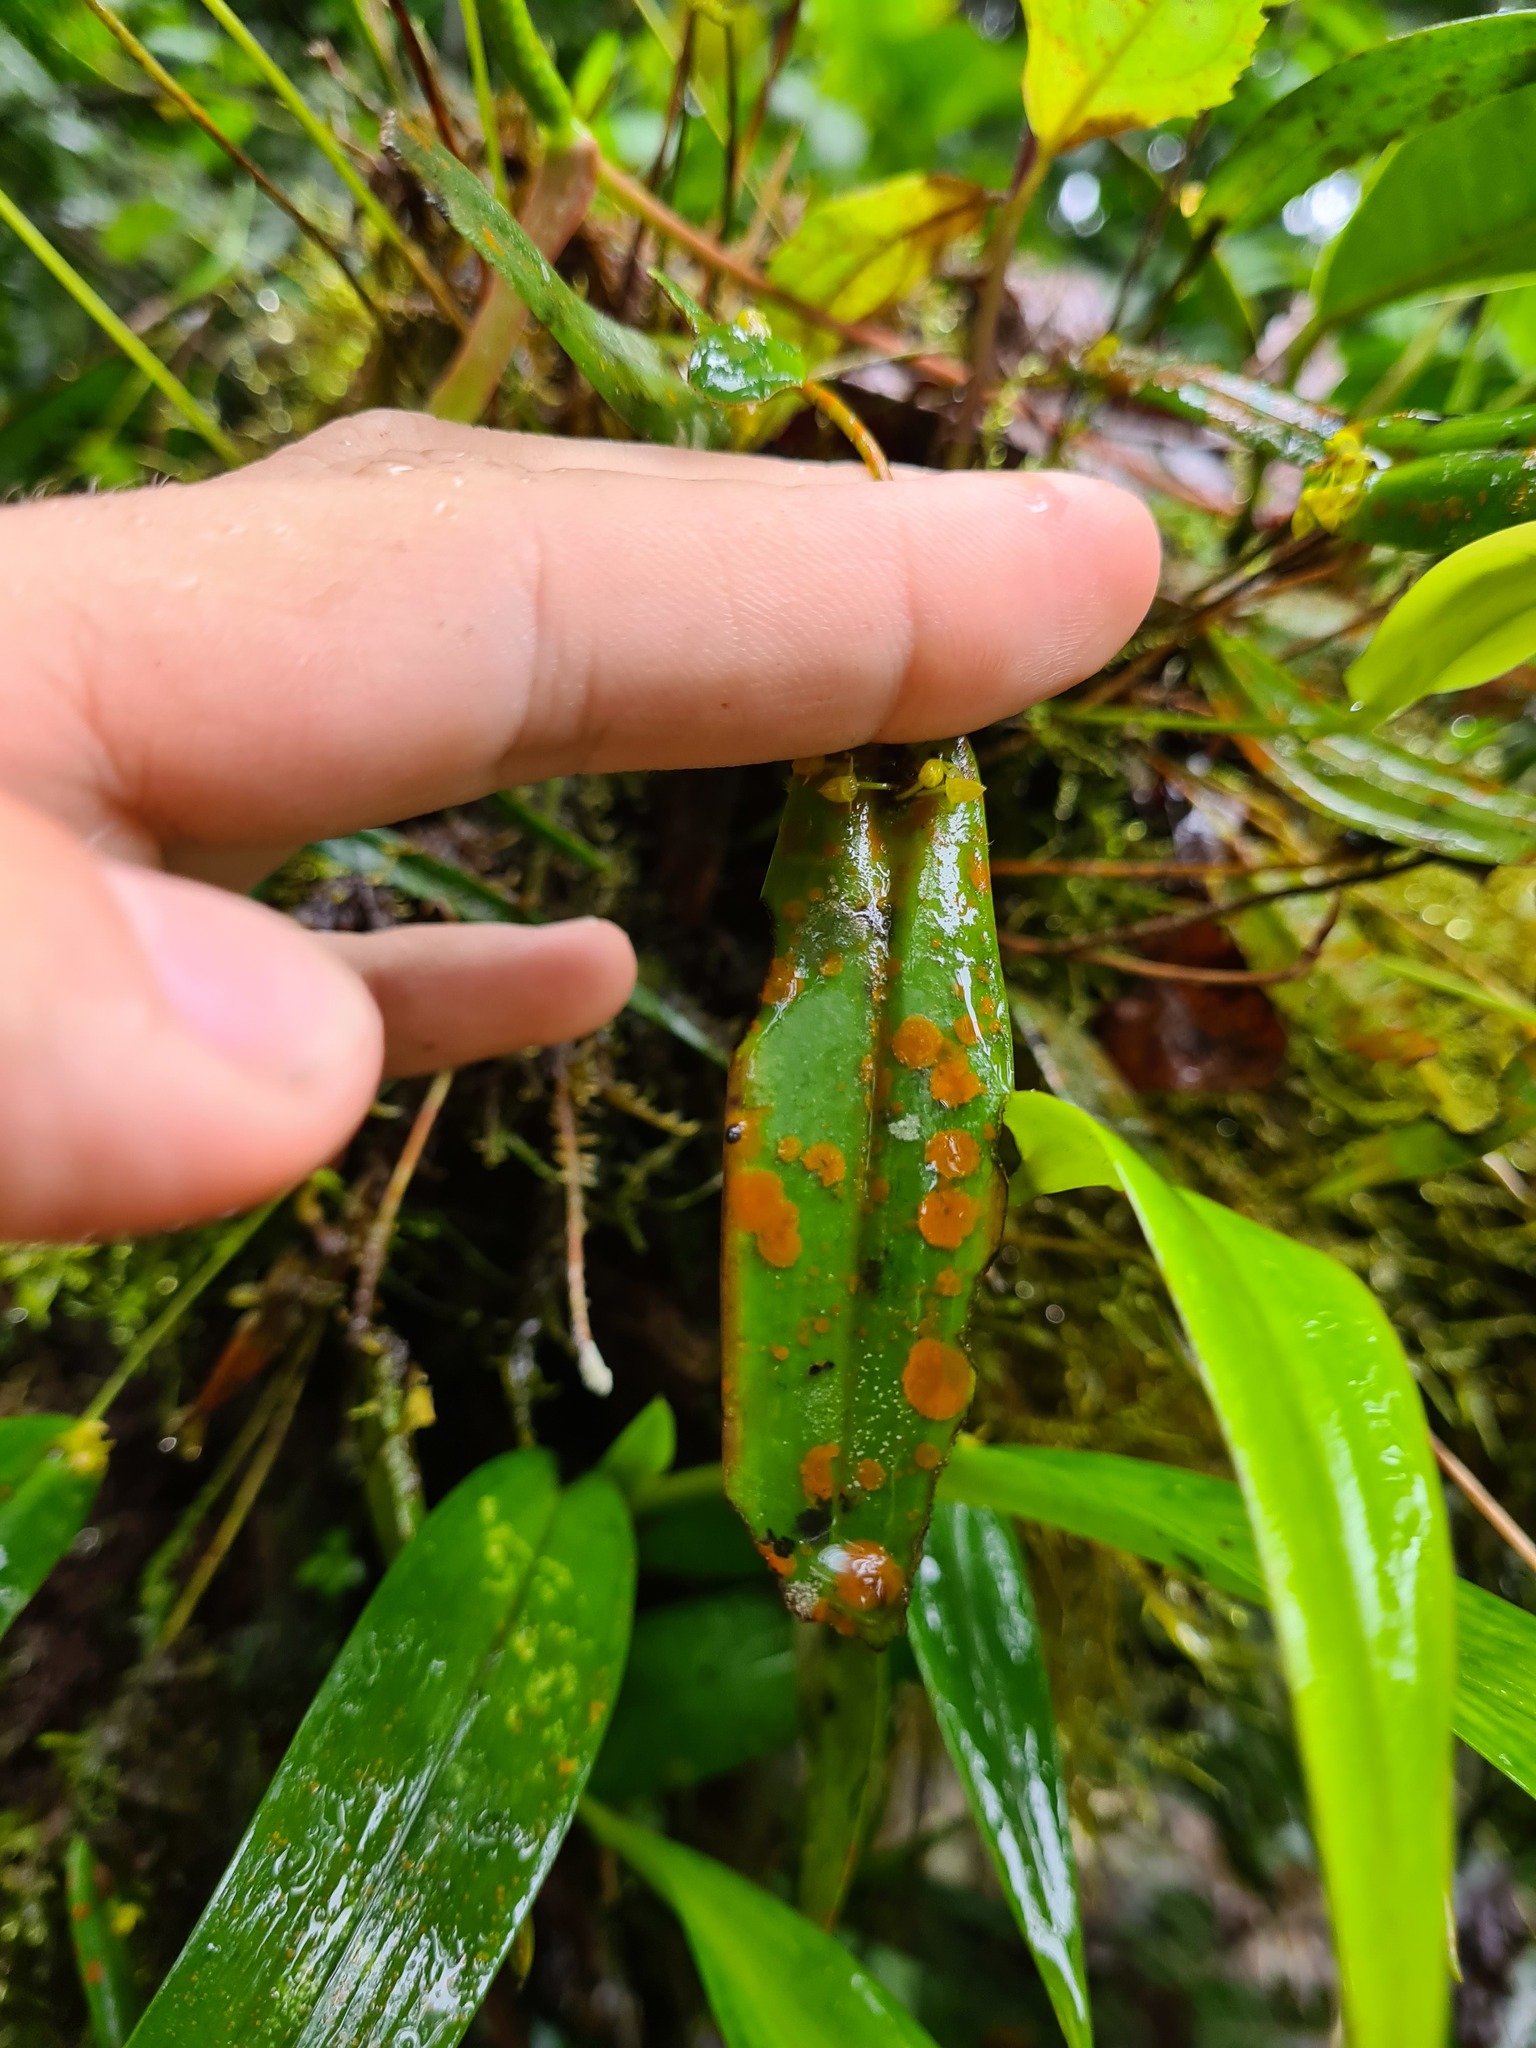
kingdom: Plantae
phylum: Tracheophyta
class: Liliopsida
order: Asparagales
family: Orchidaceae
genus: Pleurothallis
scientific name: Pleurothallis dibolia
